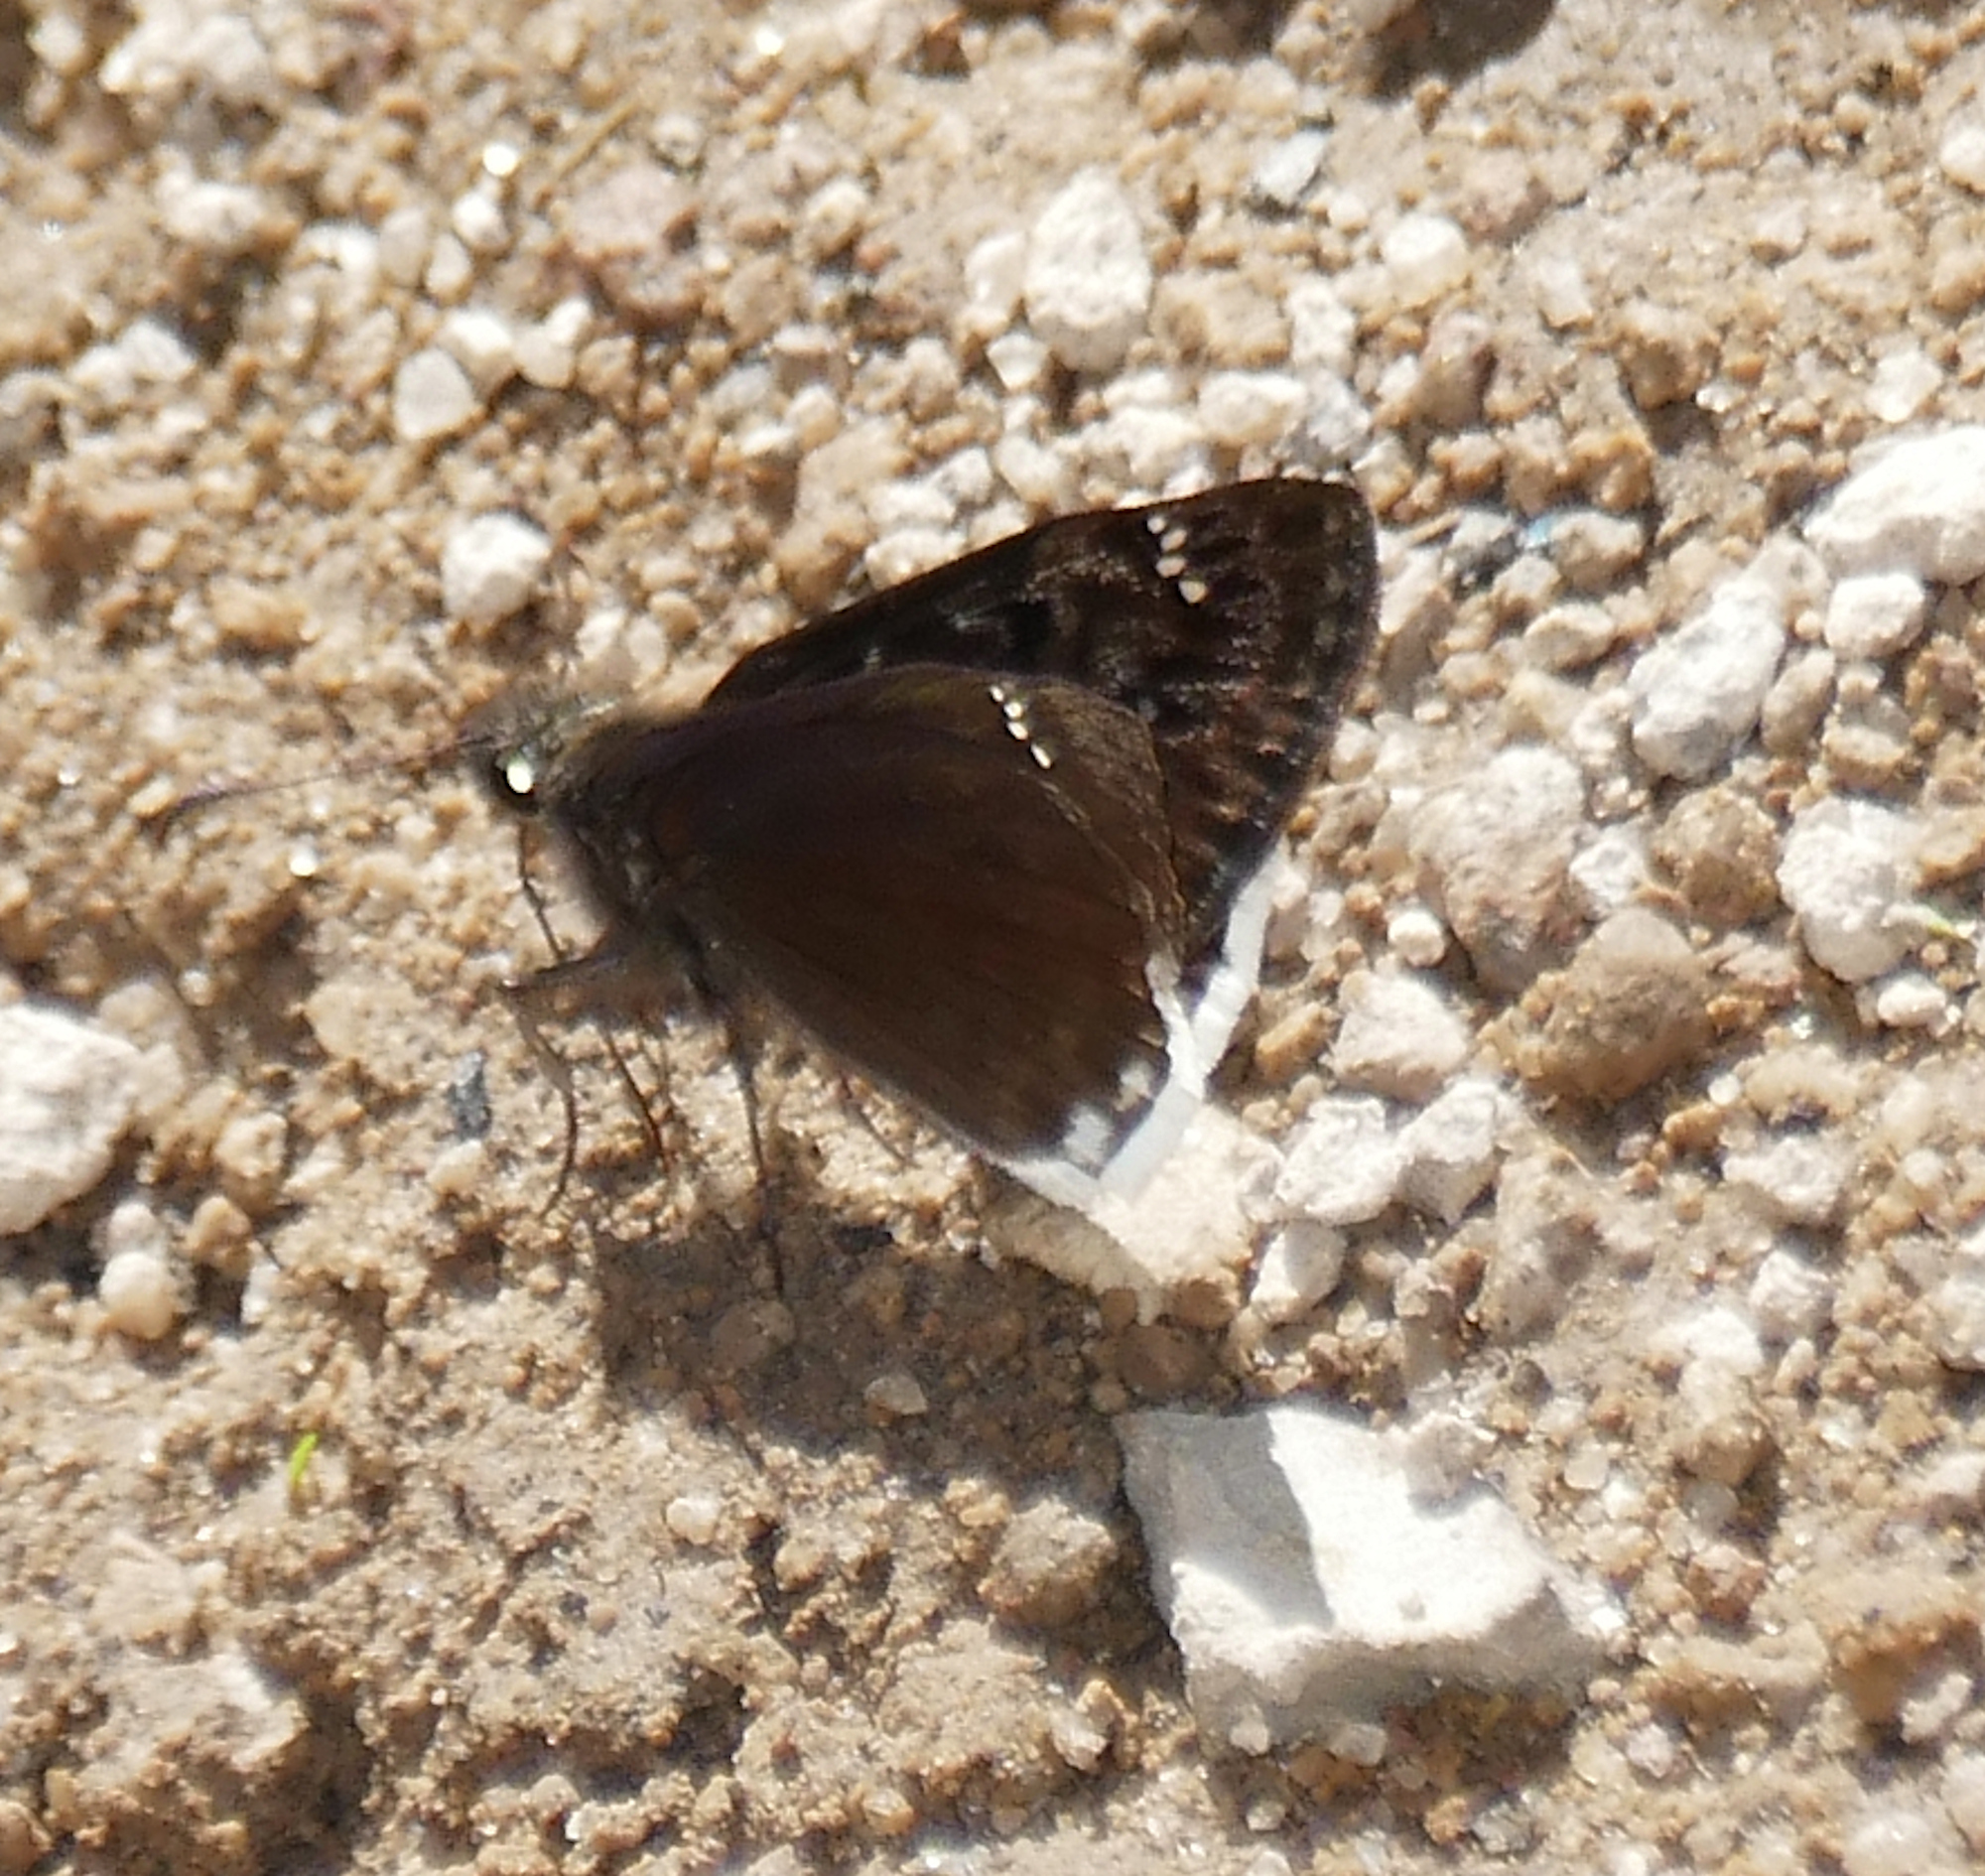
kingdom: Animalia
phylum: Arthropoda
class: Insecta
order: Lepidoptera
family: Hesperiidae
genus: Erynnis
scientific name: Erynnis tristis
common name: Mournful duskywing
